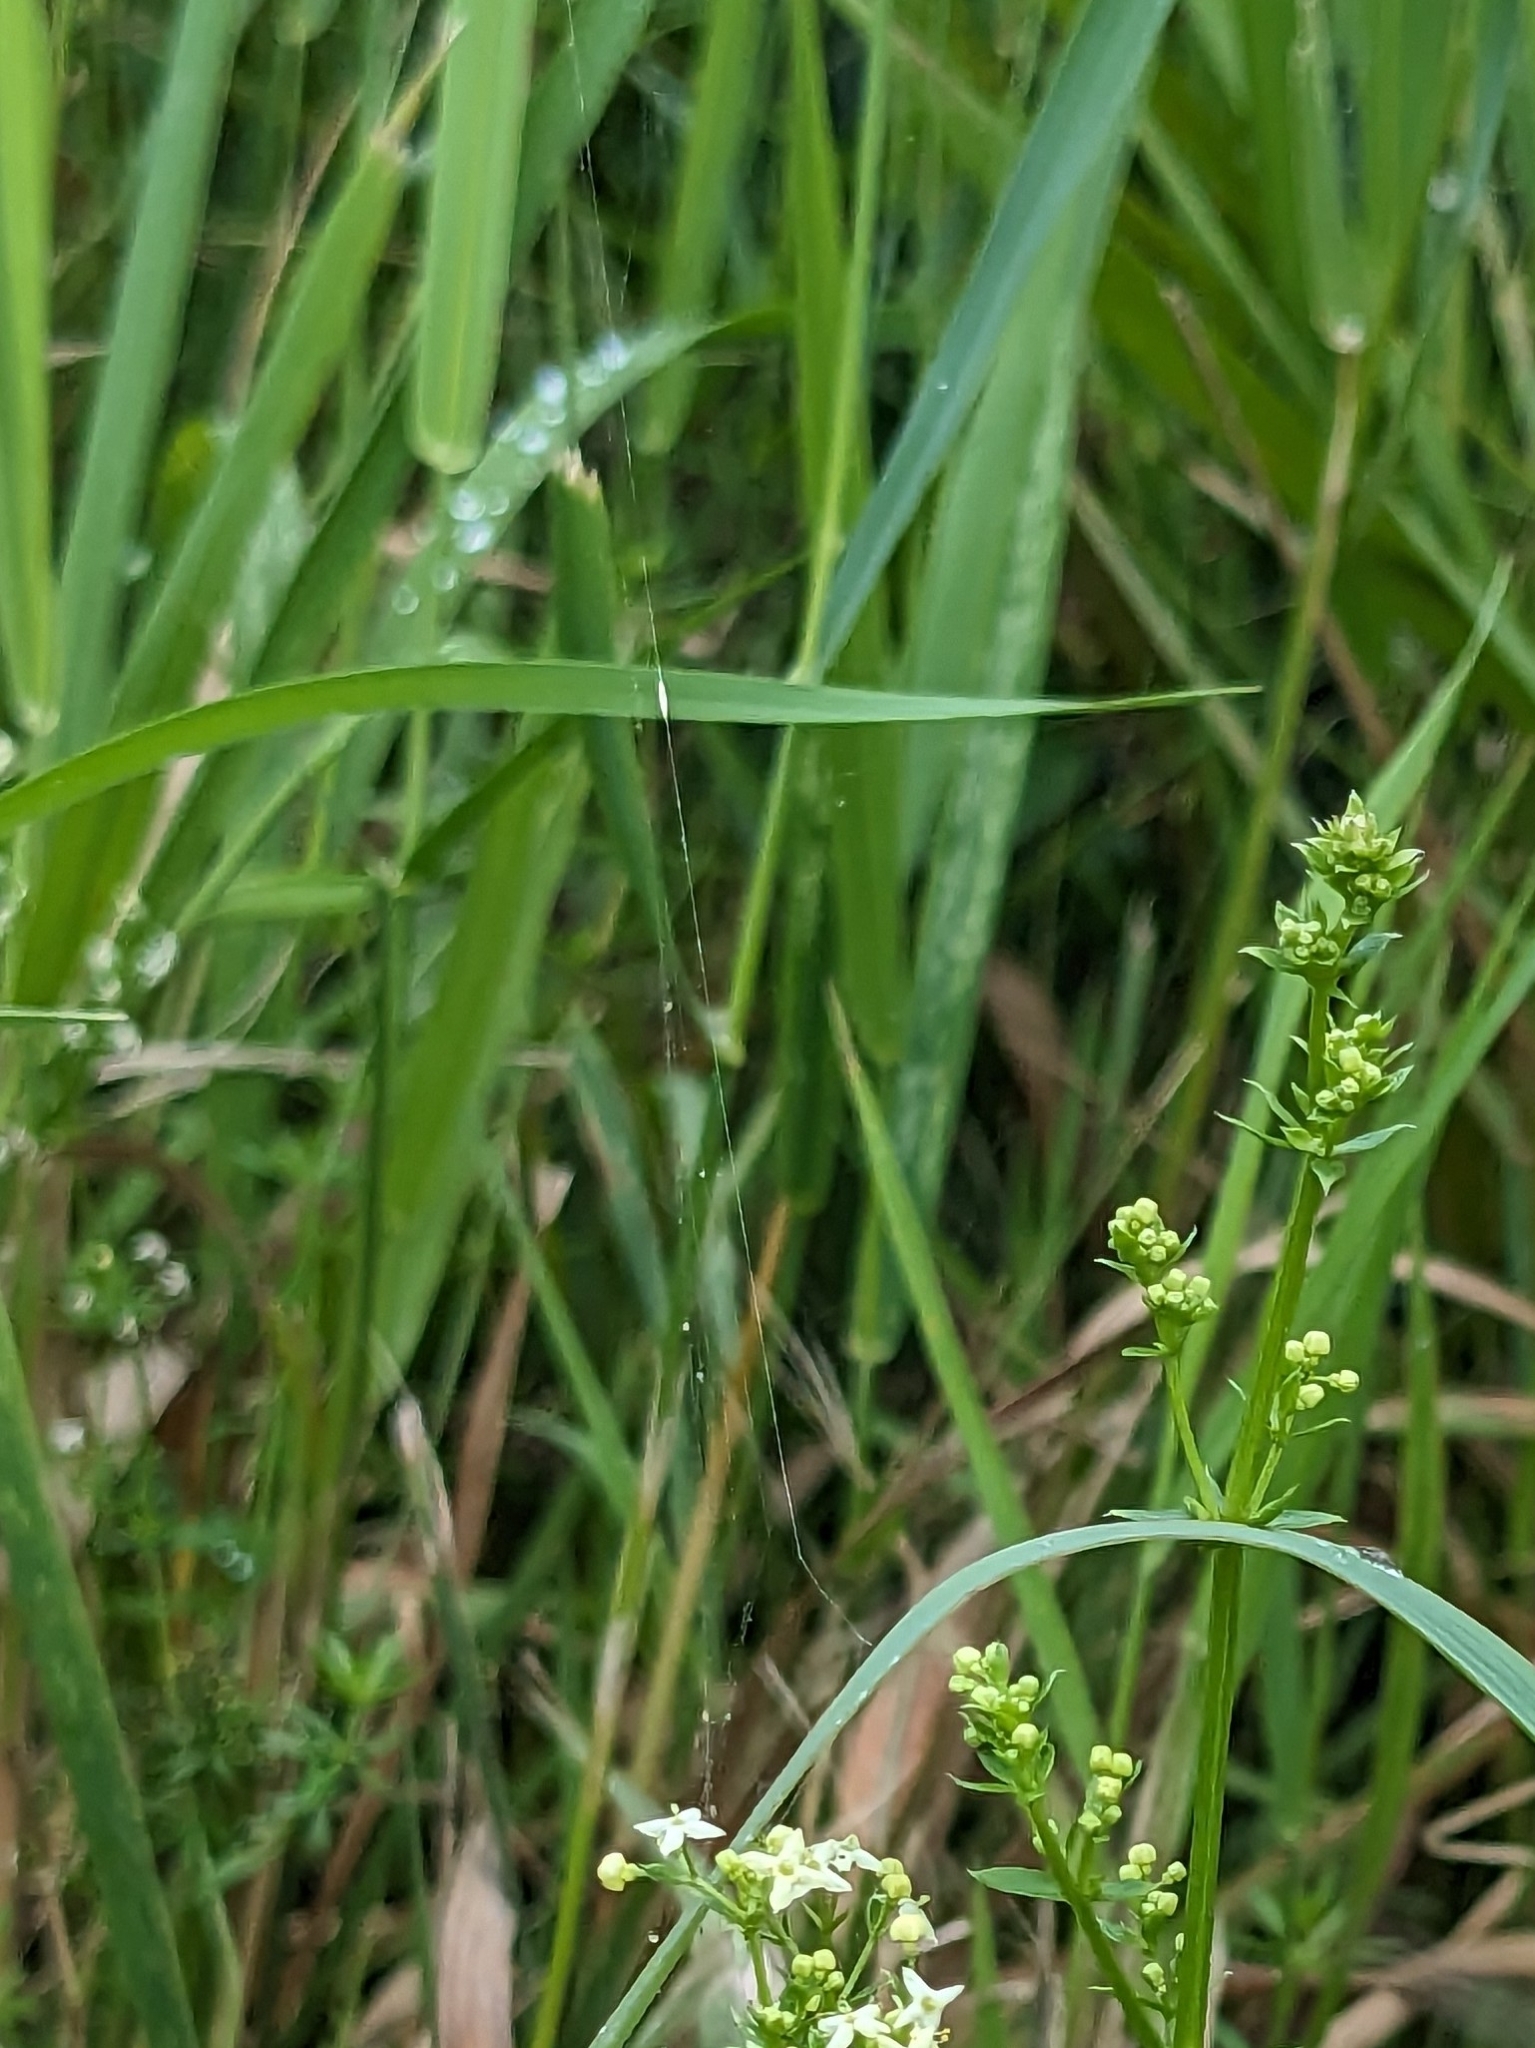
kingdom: Animalia
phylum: Arthropoda
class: Arachnida
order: Araneae
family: Araneidae
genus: Mangora
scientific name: Mangora gibberosa
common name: Lined orbweaver
